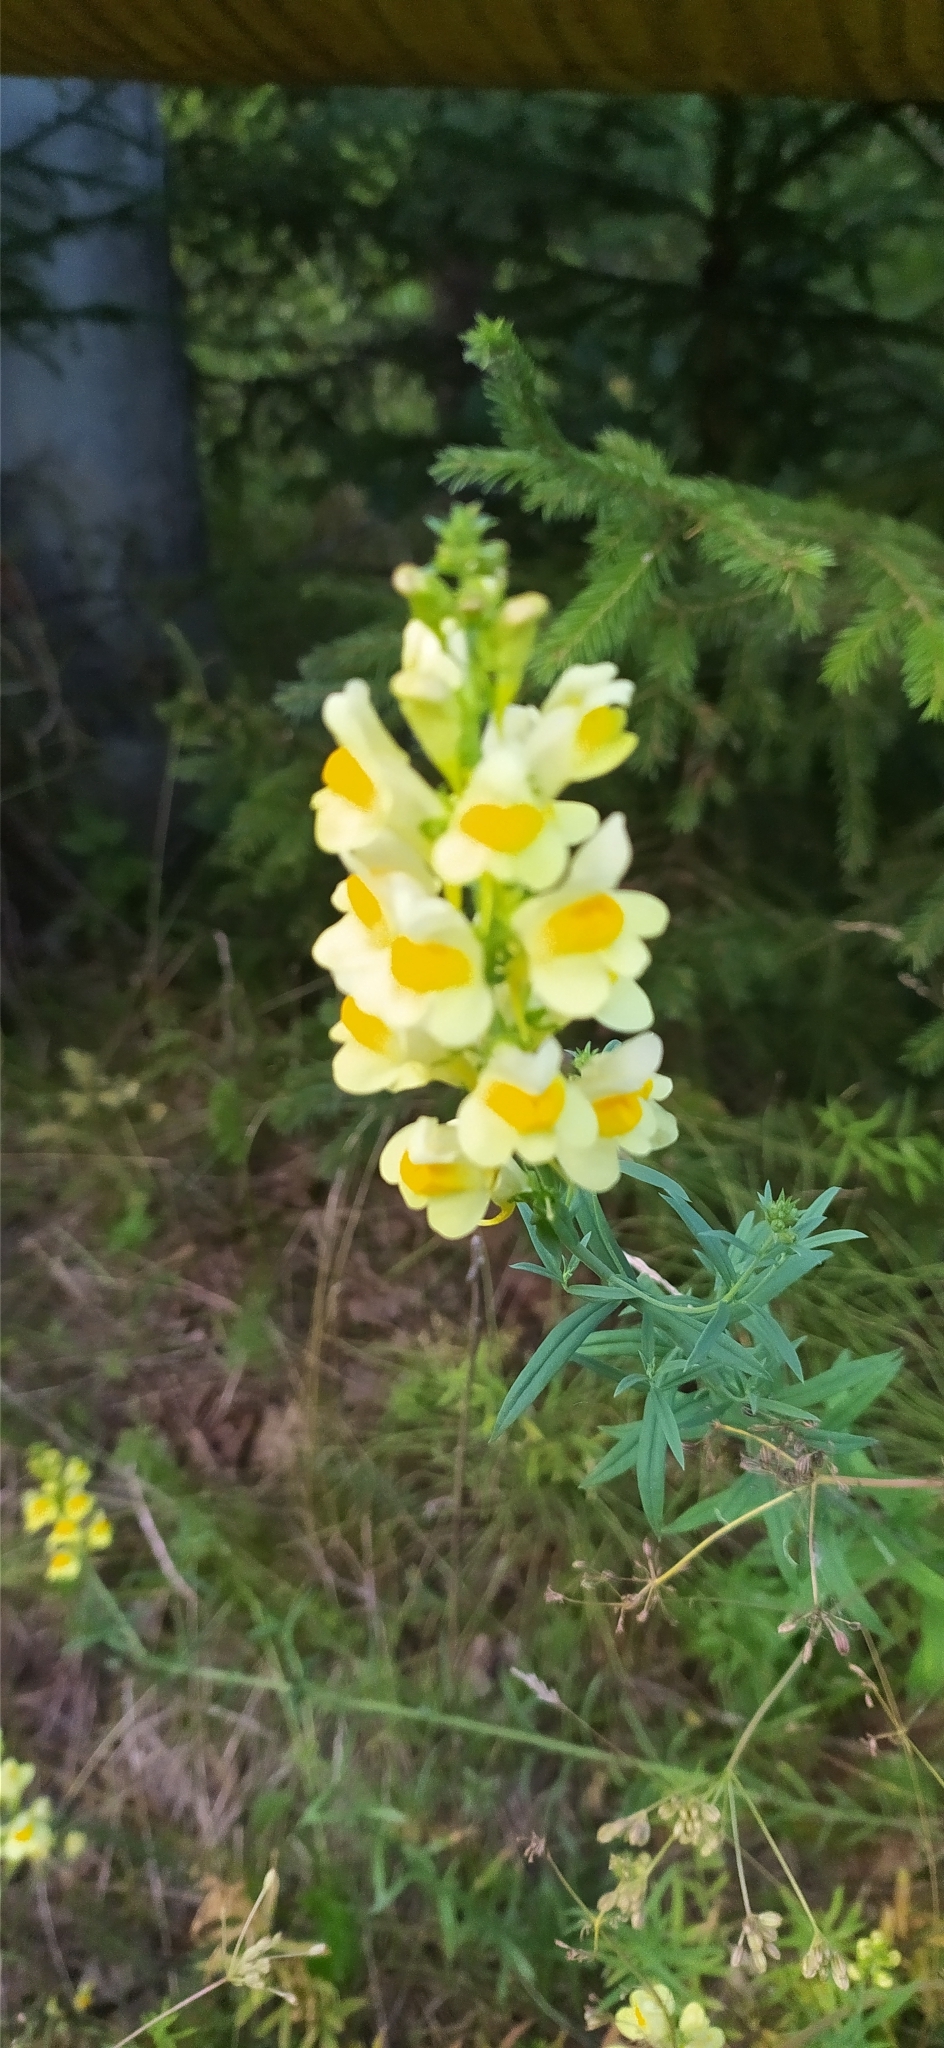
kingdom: Plantae
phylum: Tracheophyta
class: Magnoliopsida
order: Lamiales
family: Plantaginaceae
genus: Linaria
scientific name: Linaria vulgaris
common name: Butter and eggs
